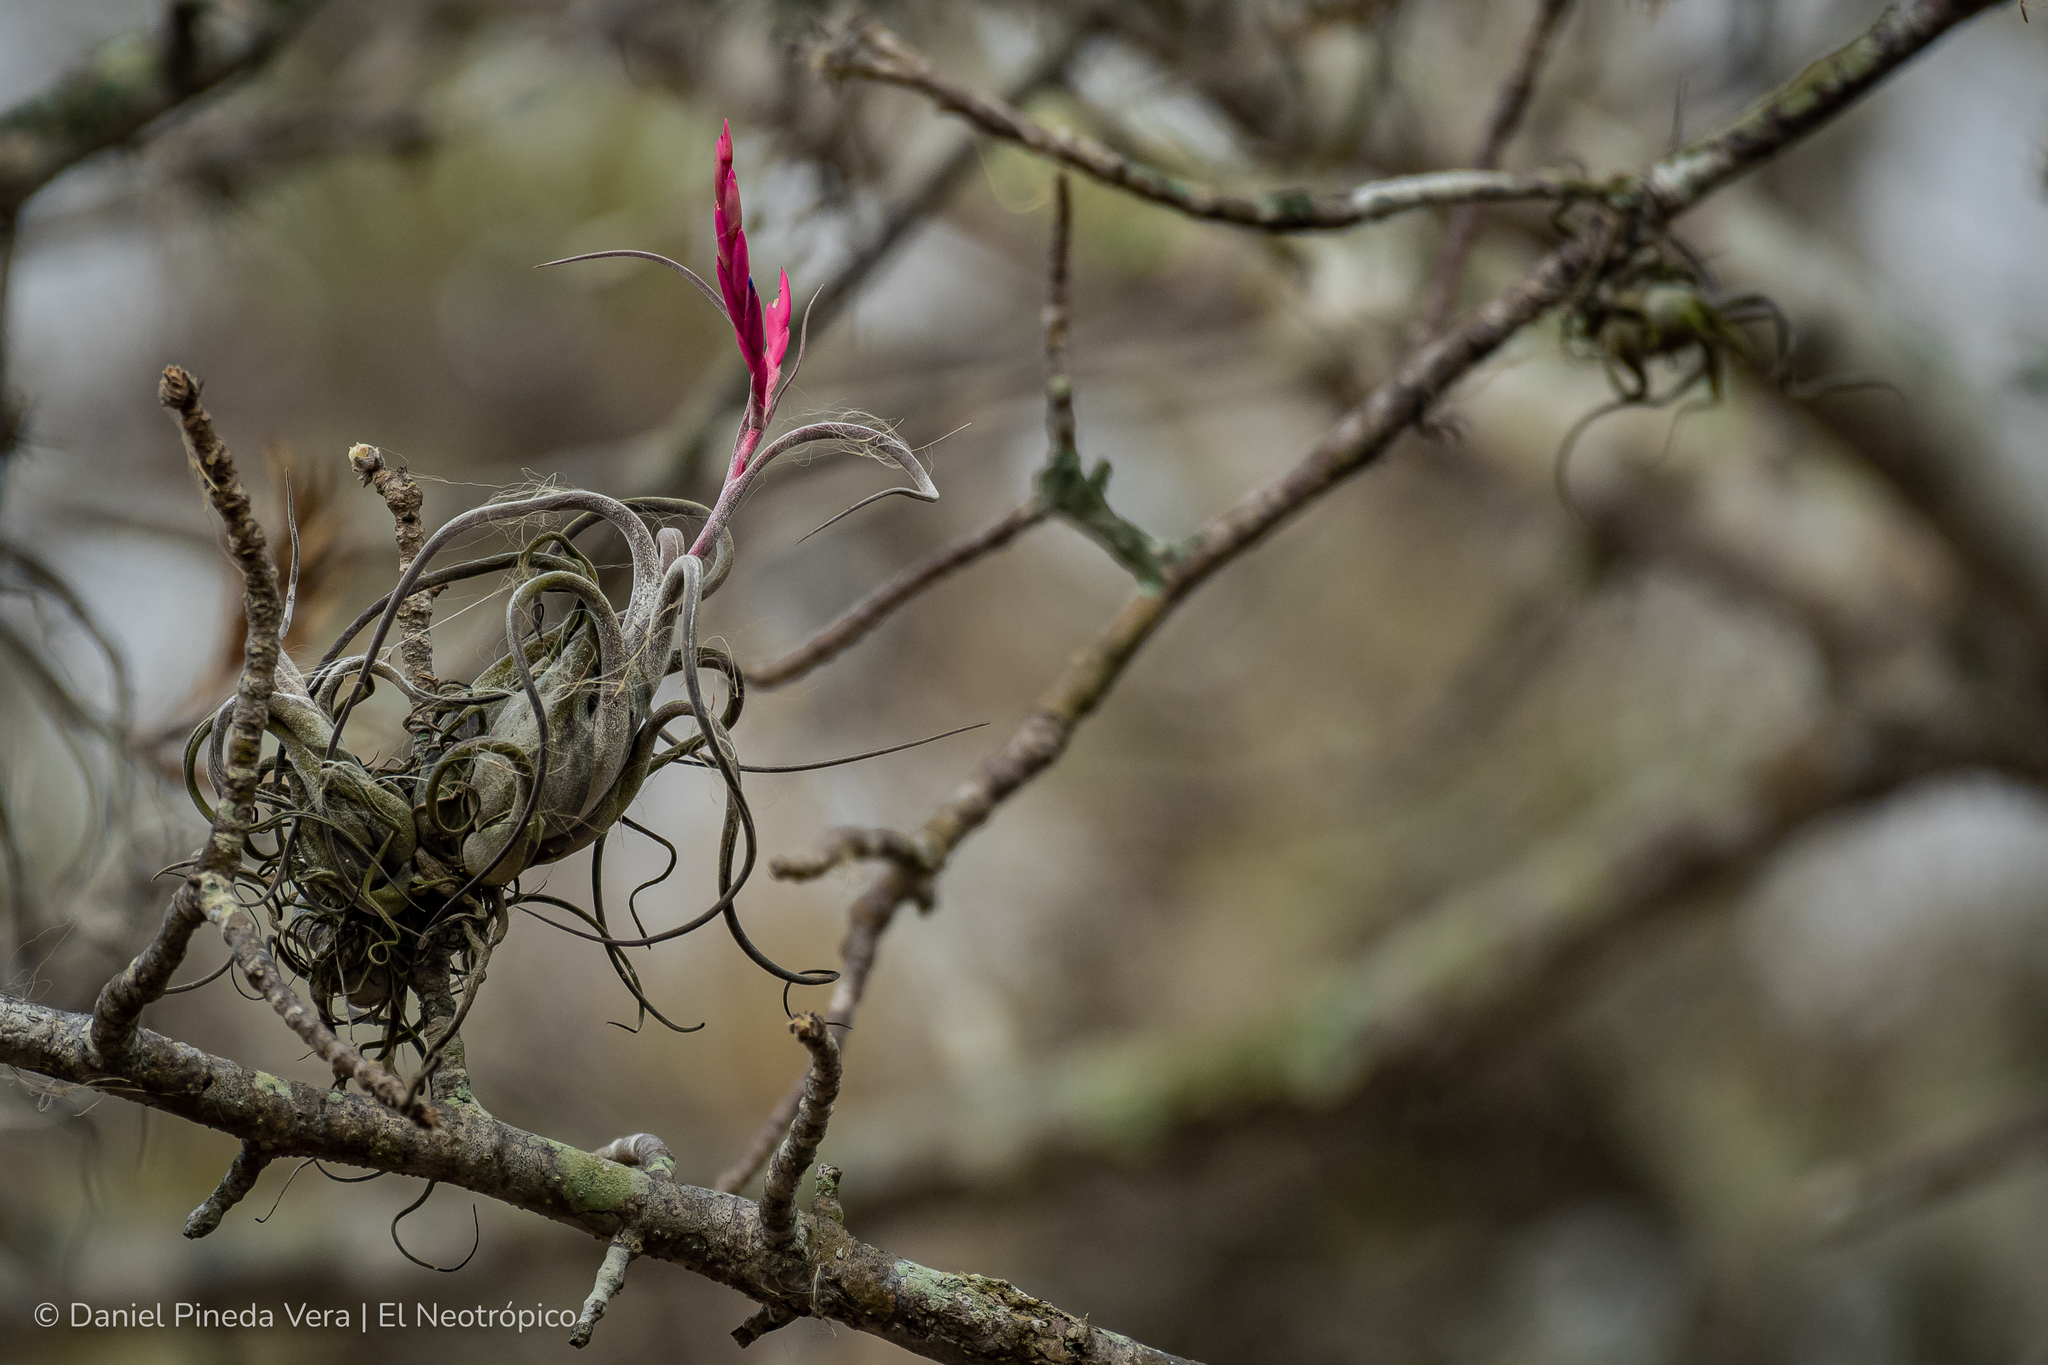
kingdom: Plantae
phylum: Tracheophyta
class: Liliopsida
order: Poales
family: Bromeliaceae
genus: Tillandsia
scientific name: Tillandsia caput-medusae
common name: Octopus plant
